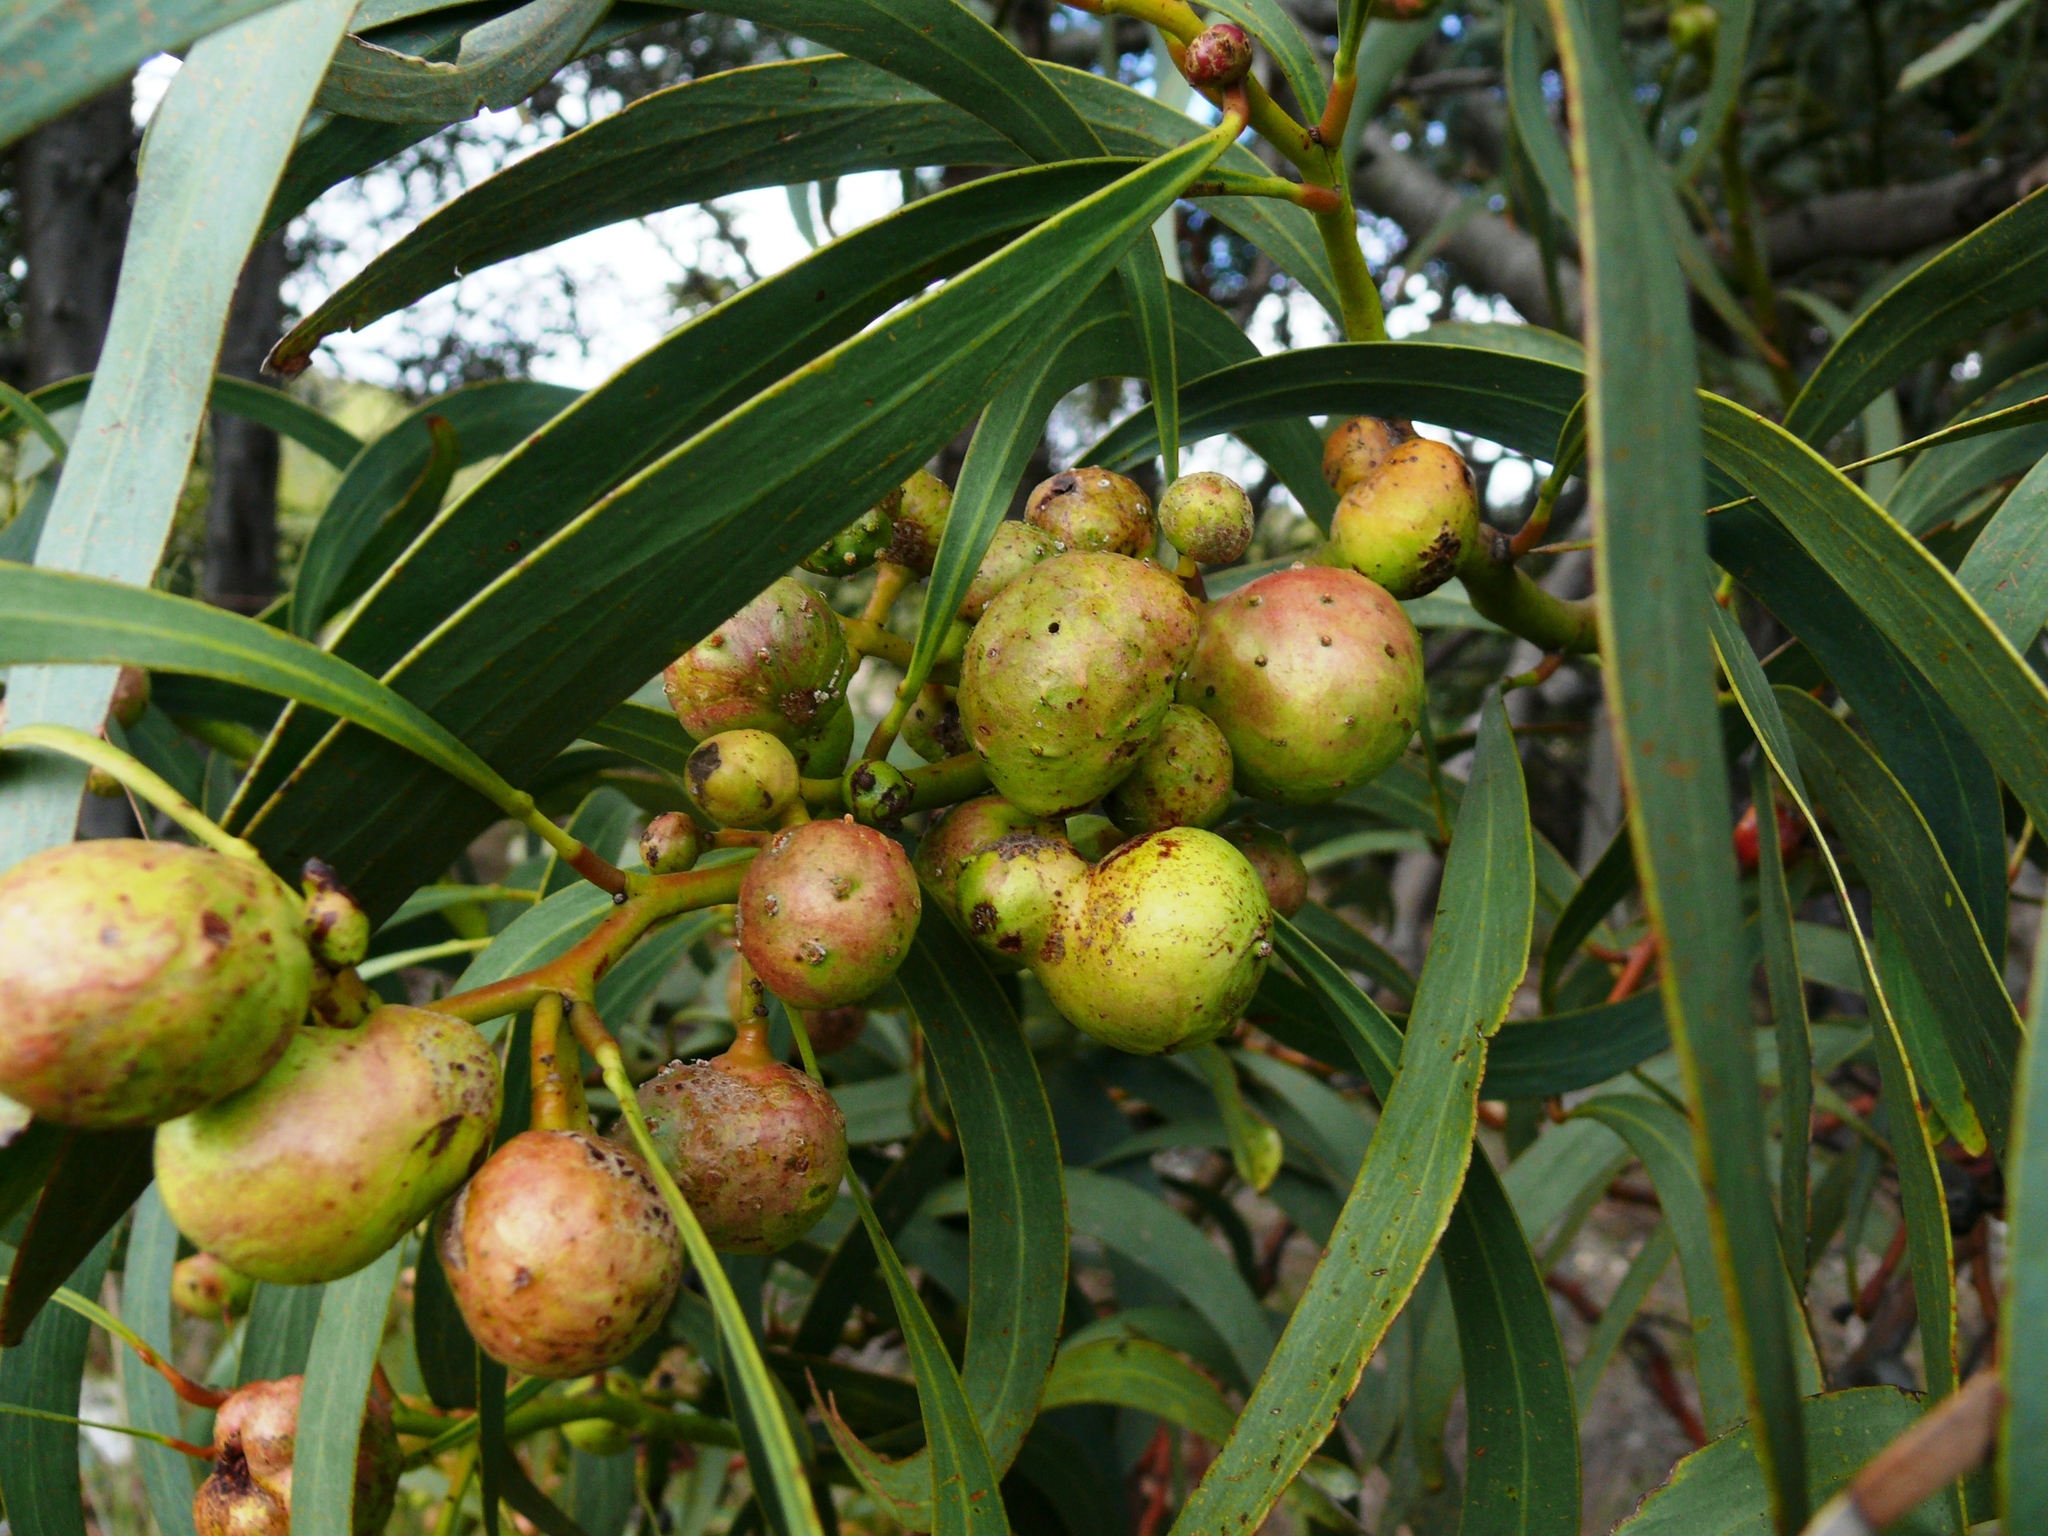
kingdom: Animalia
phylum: Arthropoda
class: Insecta
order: Hymenoptera
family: Pteromalidae
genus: Trichilogaster
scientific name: Trichilogaster signiventris
